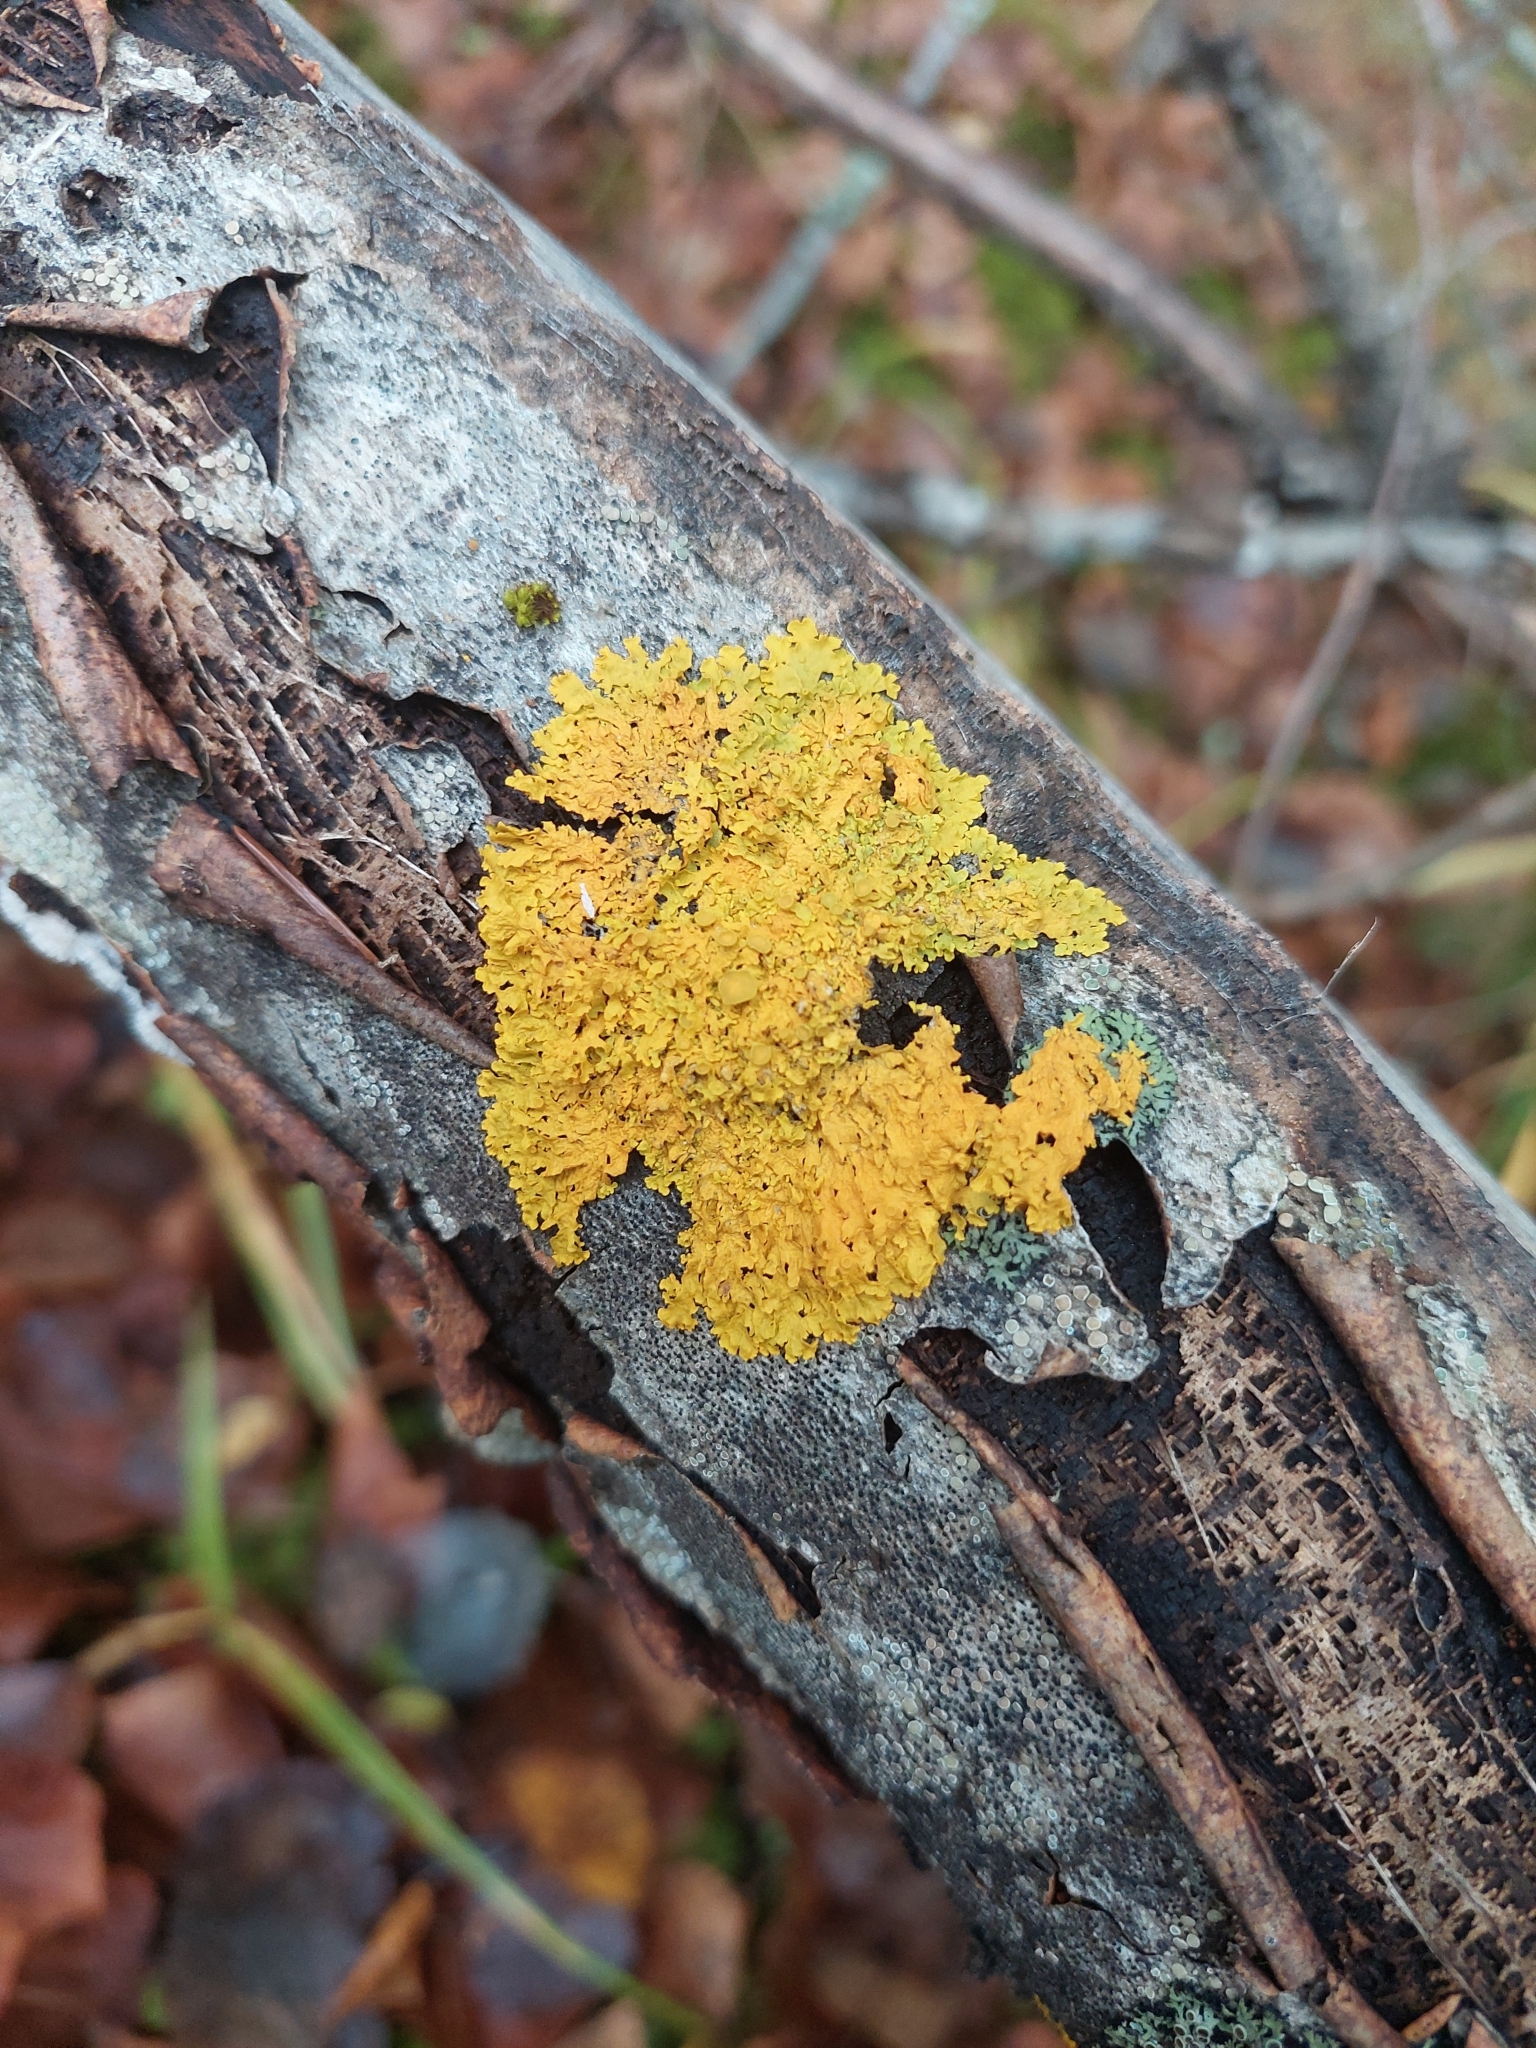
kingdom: Fungi
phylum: Ascomycota
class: Lecanoromycetes
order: Teloschistales
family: Teloschistaceae
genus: Xanthoria
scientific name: Xanthoria parietina
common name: Common orange lichen
